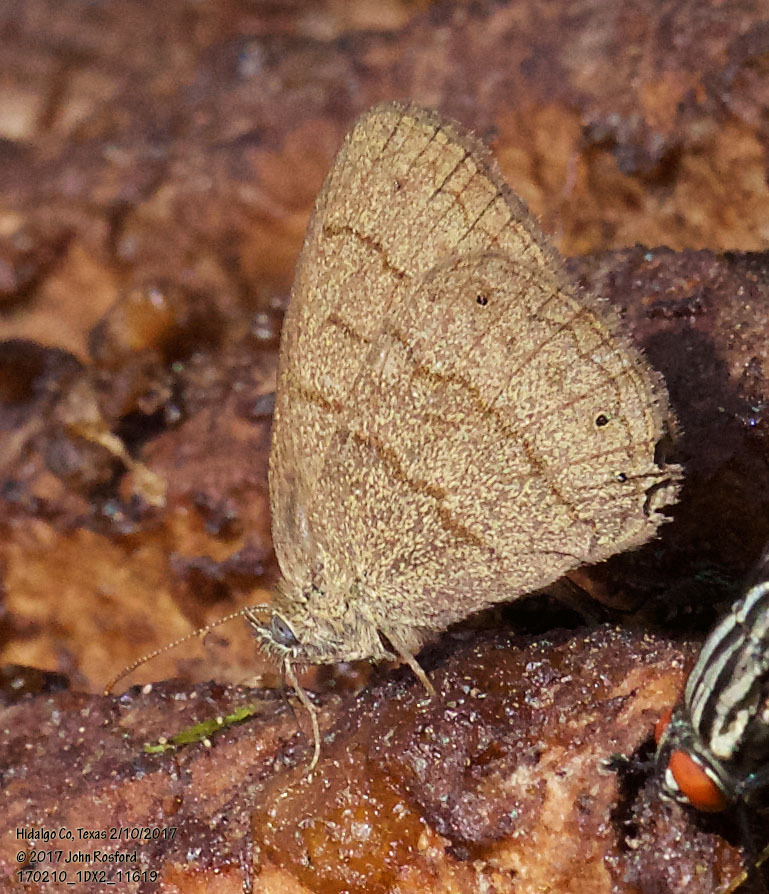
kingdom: Animalia
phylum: Arthropoda
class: Insecta
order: Lepidoptera
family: Nymphalidae
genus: Hermeuptychia
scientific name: Hermeuptychia hermybius
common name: South texas satyr
